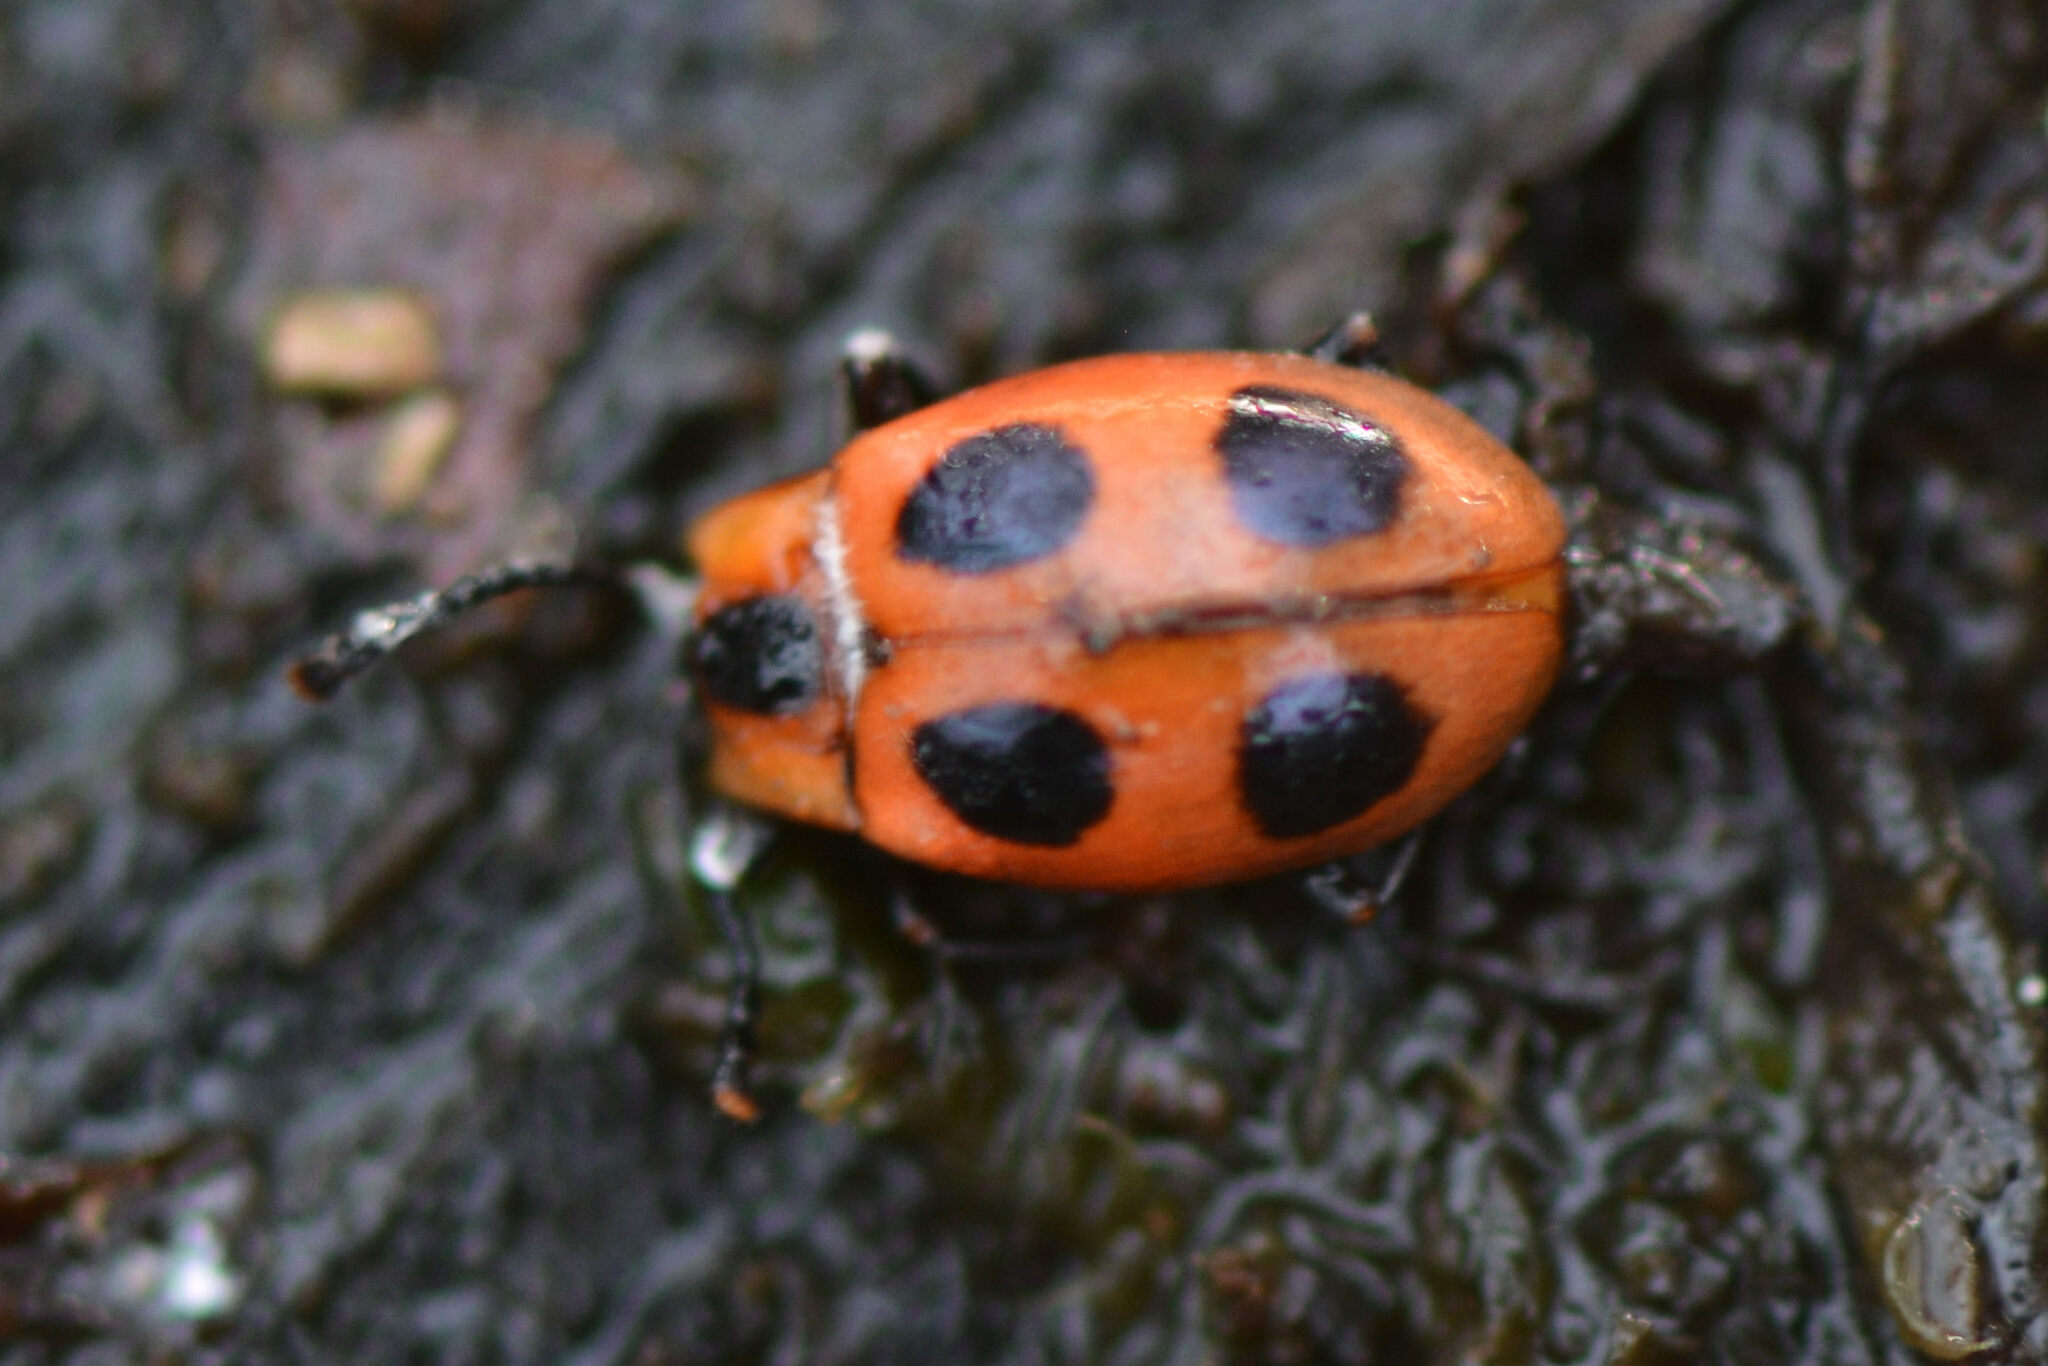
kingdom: Animalia
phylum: Arthropoda
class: Insecta
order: Coleoptera
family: Endomychidae
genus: Endomychus
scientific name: Endomychus coccineus
